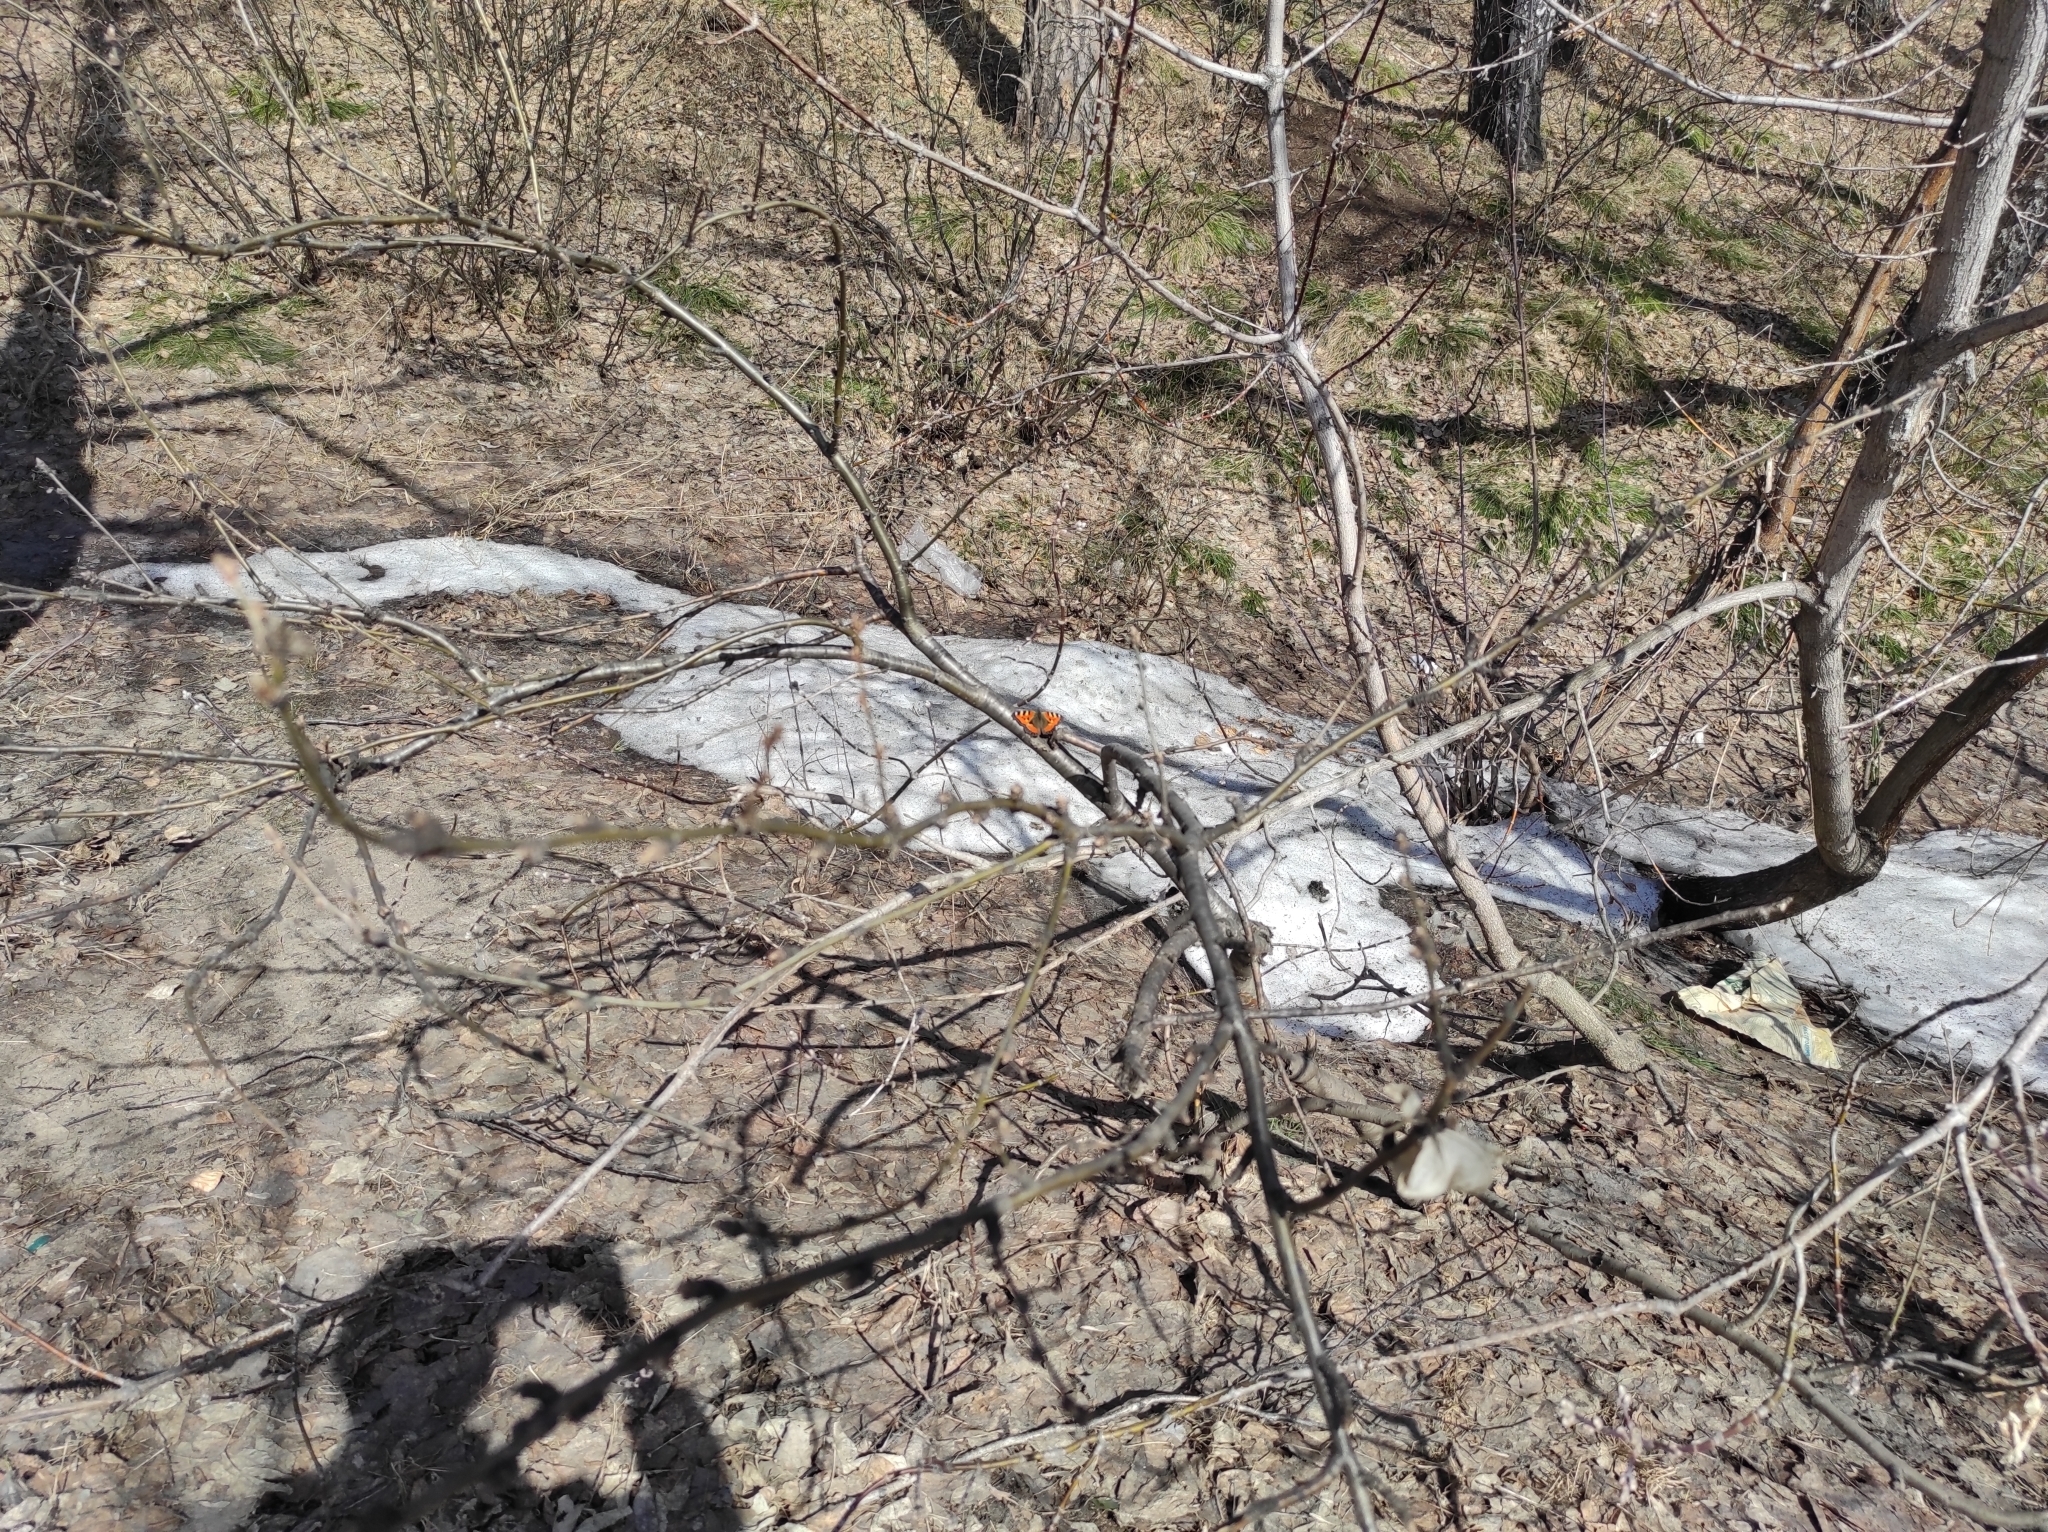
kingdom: Animalia
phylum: Arthropoda
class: Insecta
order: Lepidoptera
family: Nymphalidae
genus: Aglais
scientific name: Aglais urticae
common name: Small tortoiseshell
